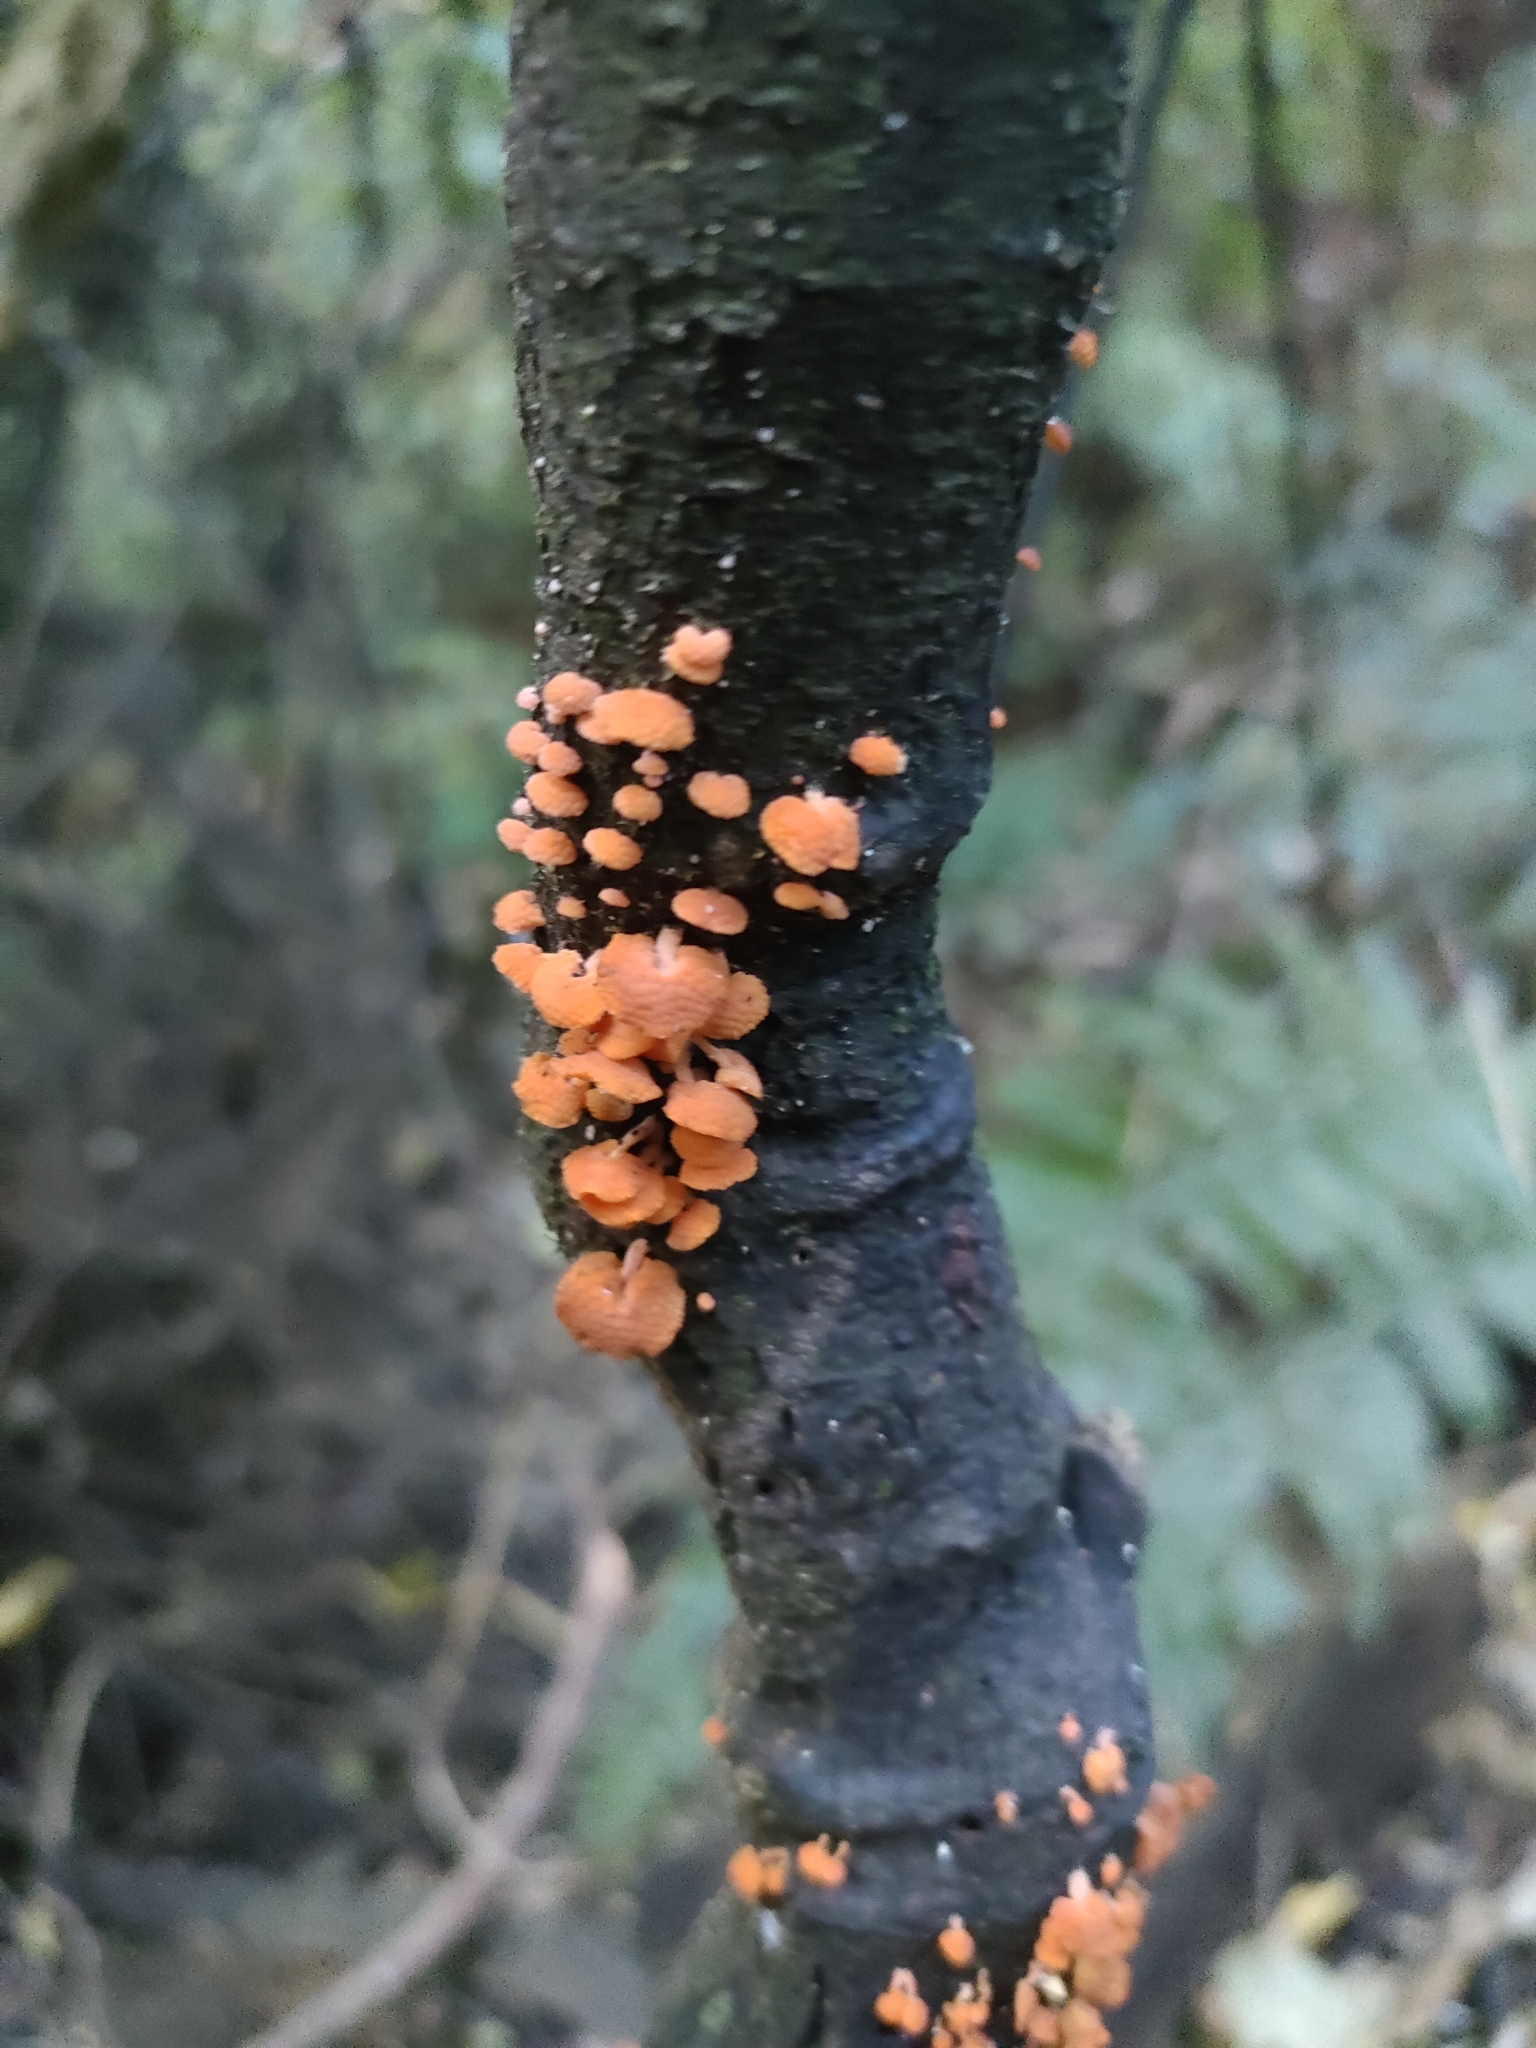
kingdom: Fungi
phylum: Basidiomycota
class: Agaricomycetes
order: Agaricales
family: Mycenaceae
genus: Favolaschia
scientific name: Favolaschia claudopus
